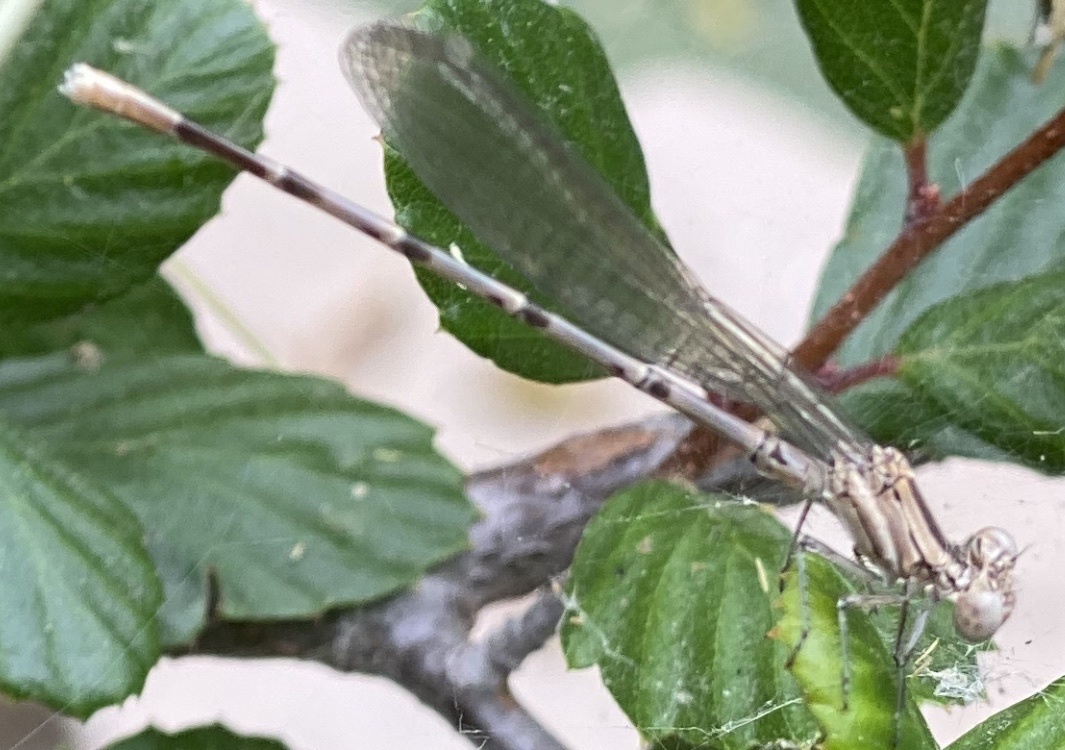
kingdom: Animalia
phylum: Arthropoda
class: Insecta
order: Odonata
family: Coenagrionidae
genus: Argia
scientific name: Argia vivida
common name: Vivid dancer
